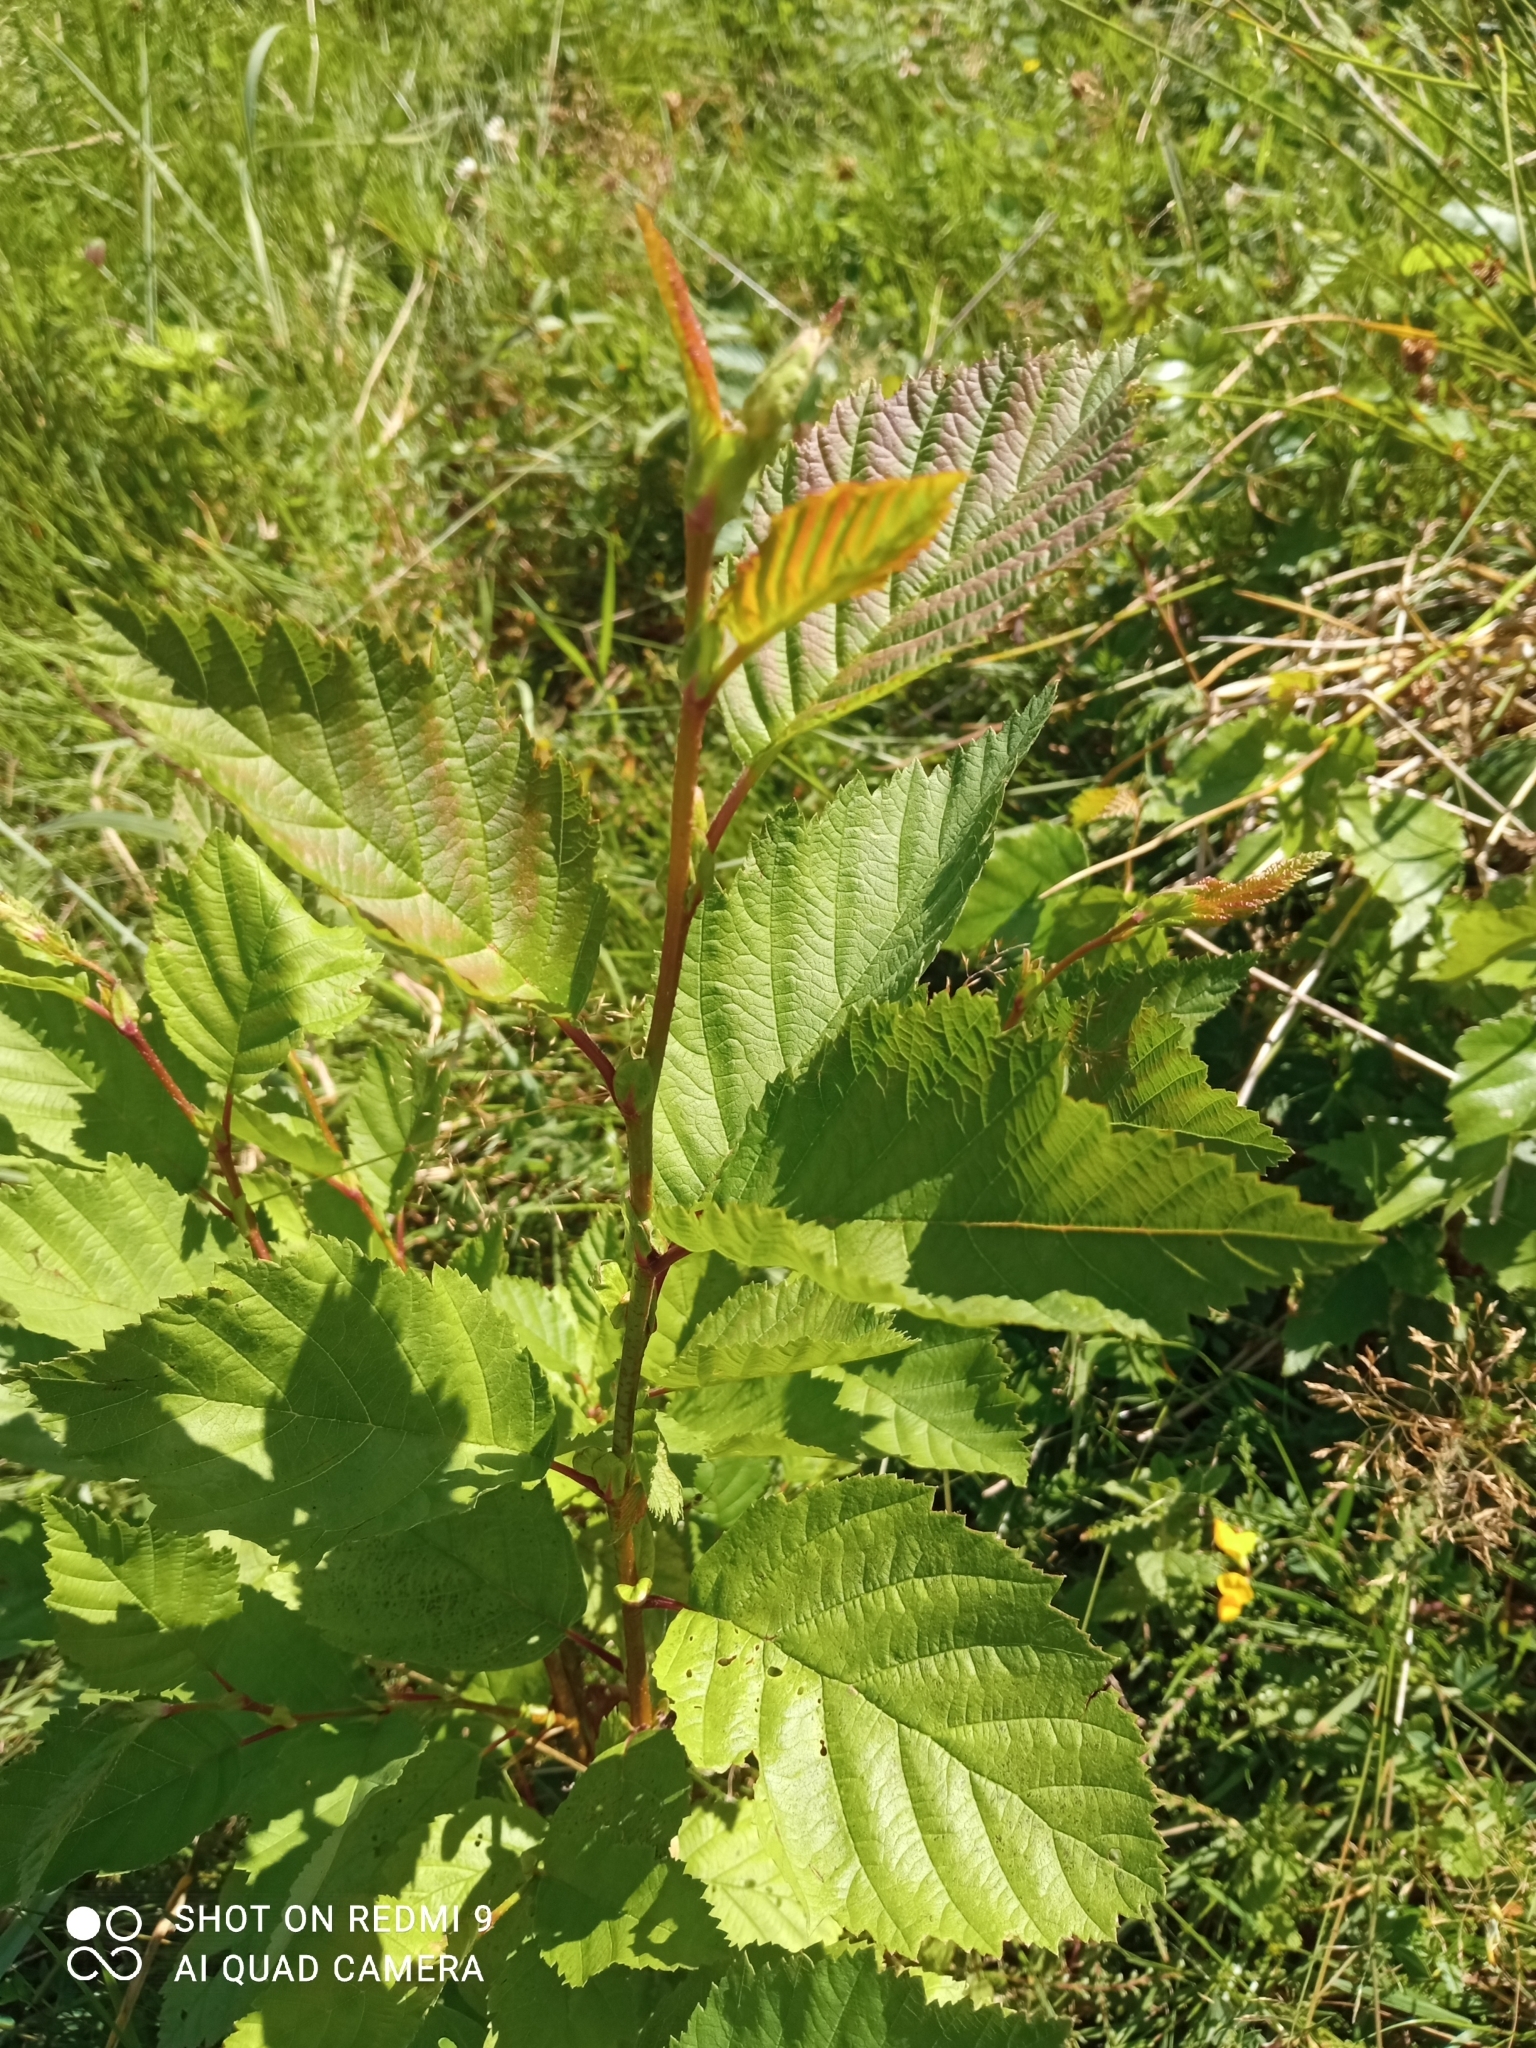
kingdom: Plantae
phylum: Tracheophyta
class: Magnoliopsida
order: Fagales
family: Betulaceae
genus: Alnus
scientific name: Alnus incana
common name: Grey alder
